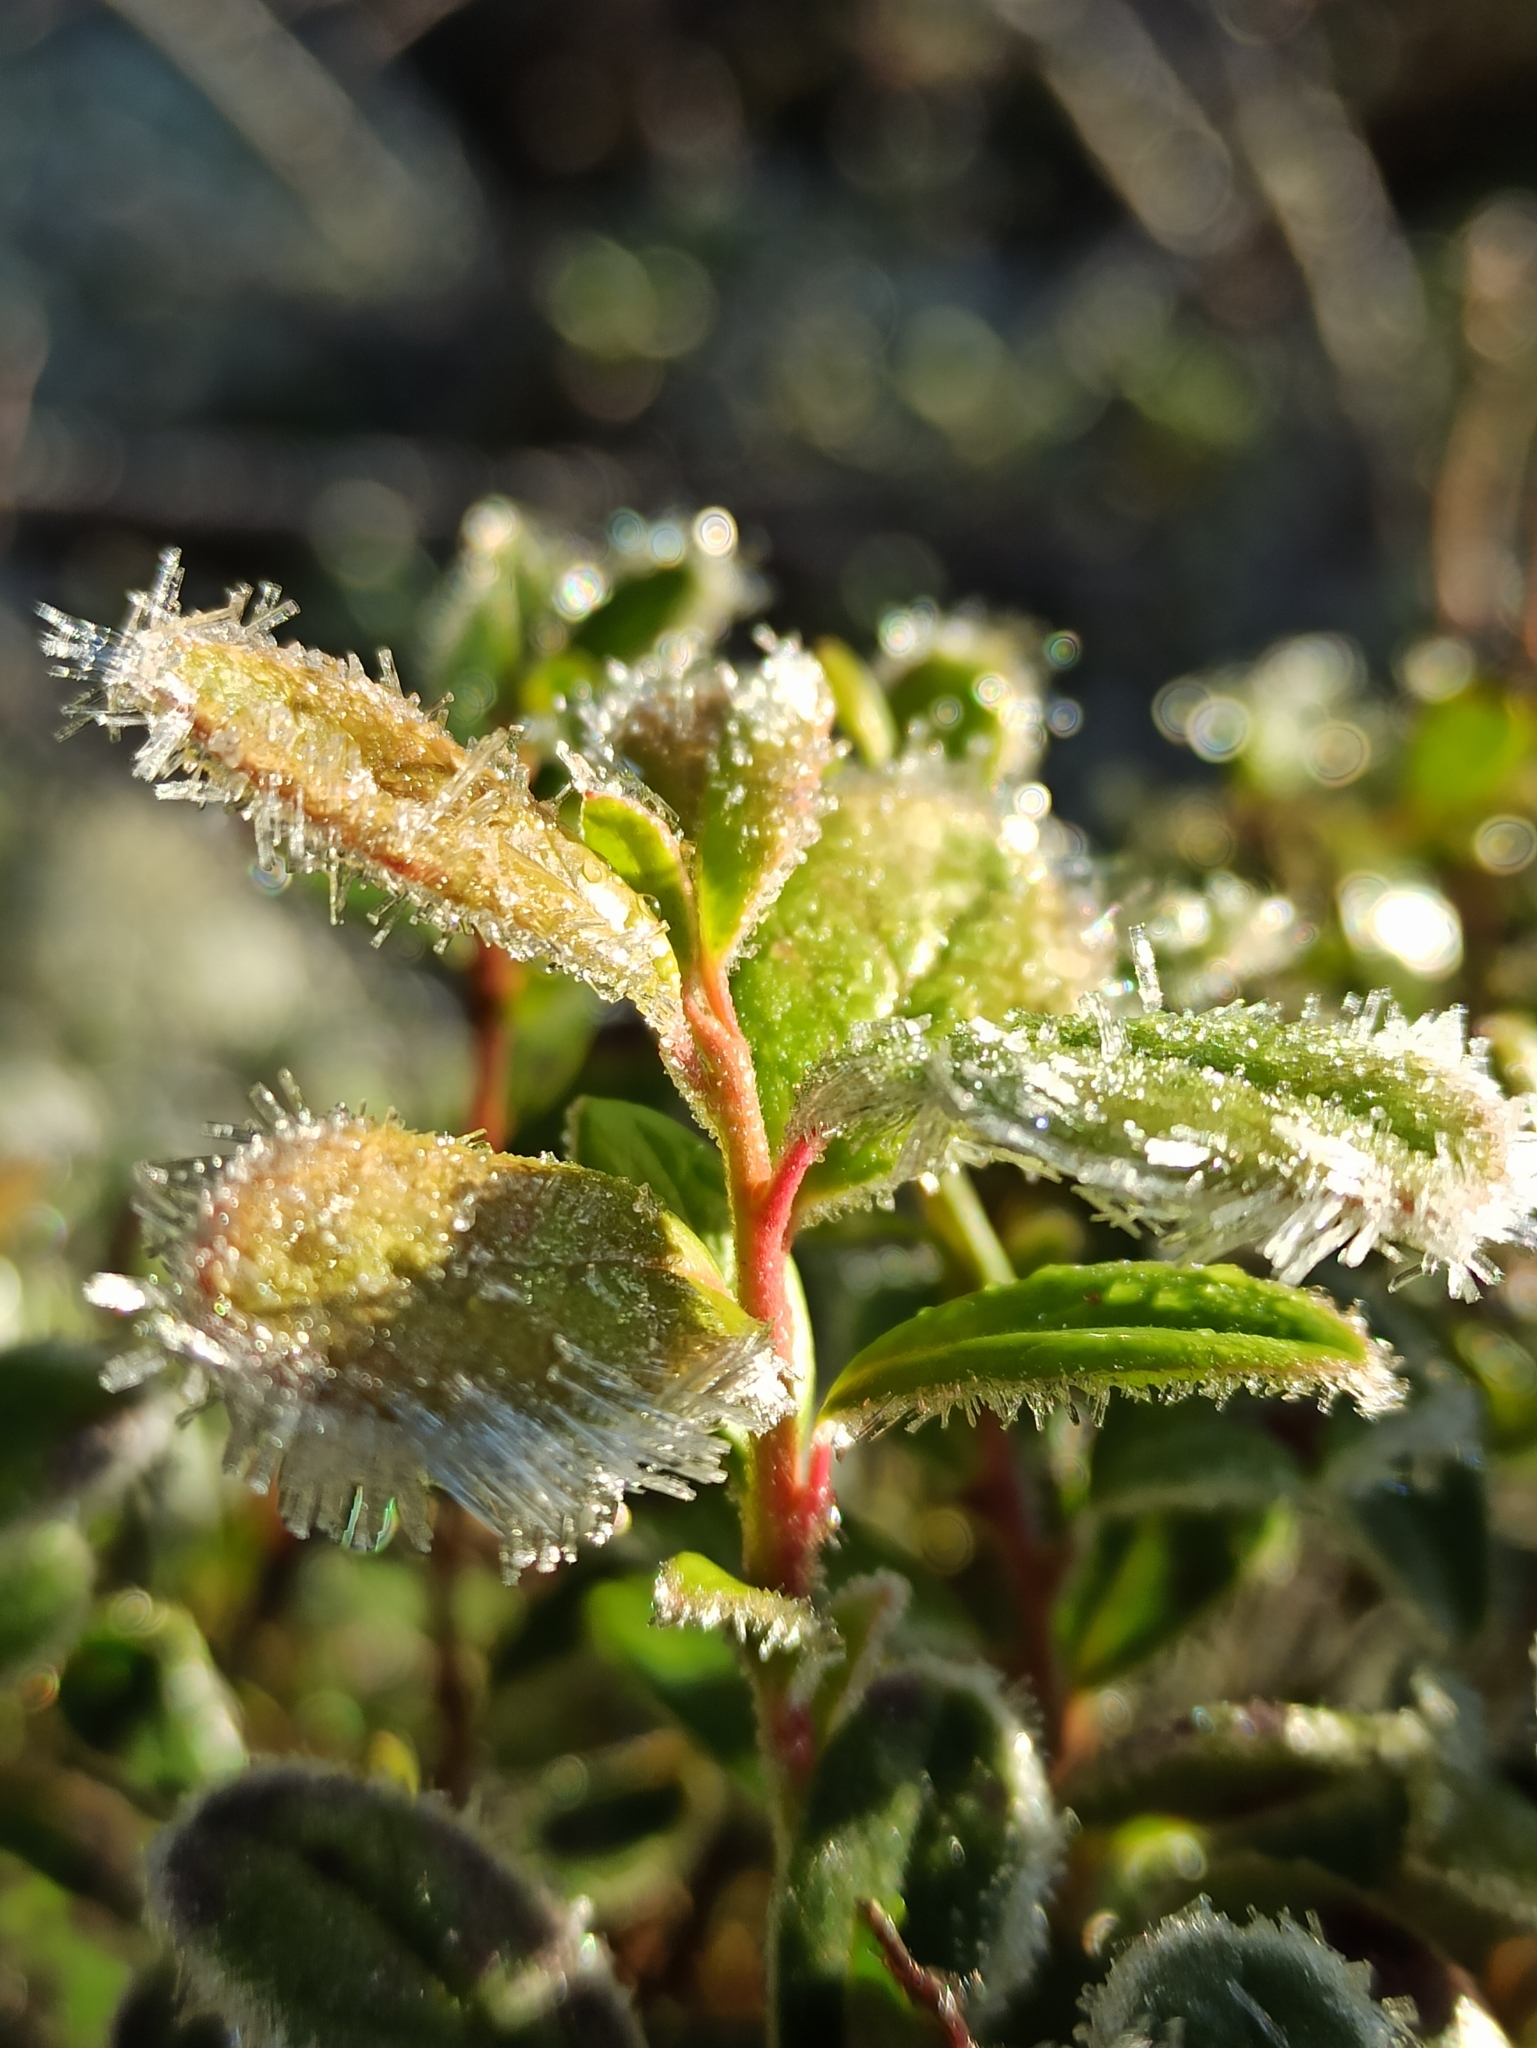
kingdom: Plantae
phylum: Tracheophyta
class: Magnoliopsida
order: Ericales
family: Ericaceae
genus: Vaccinium
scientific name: Vaccinium vitis-idaea
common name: Cowberry
